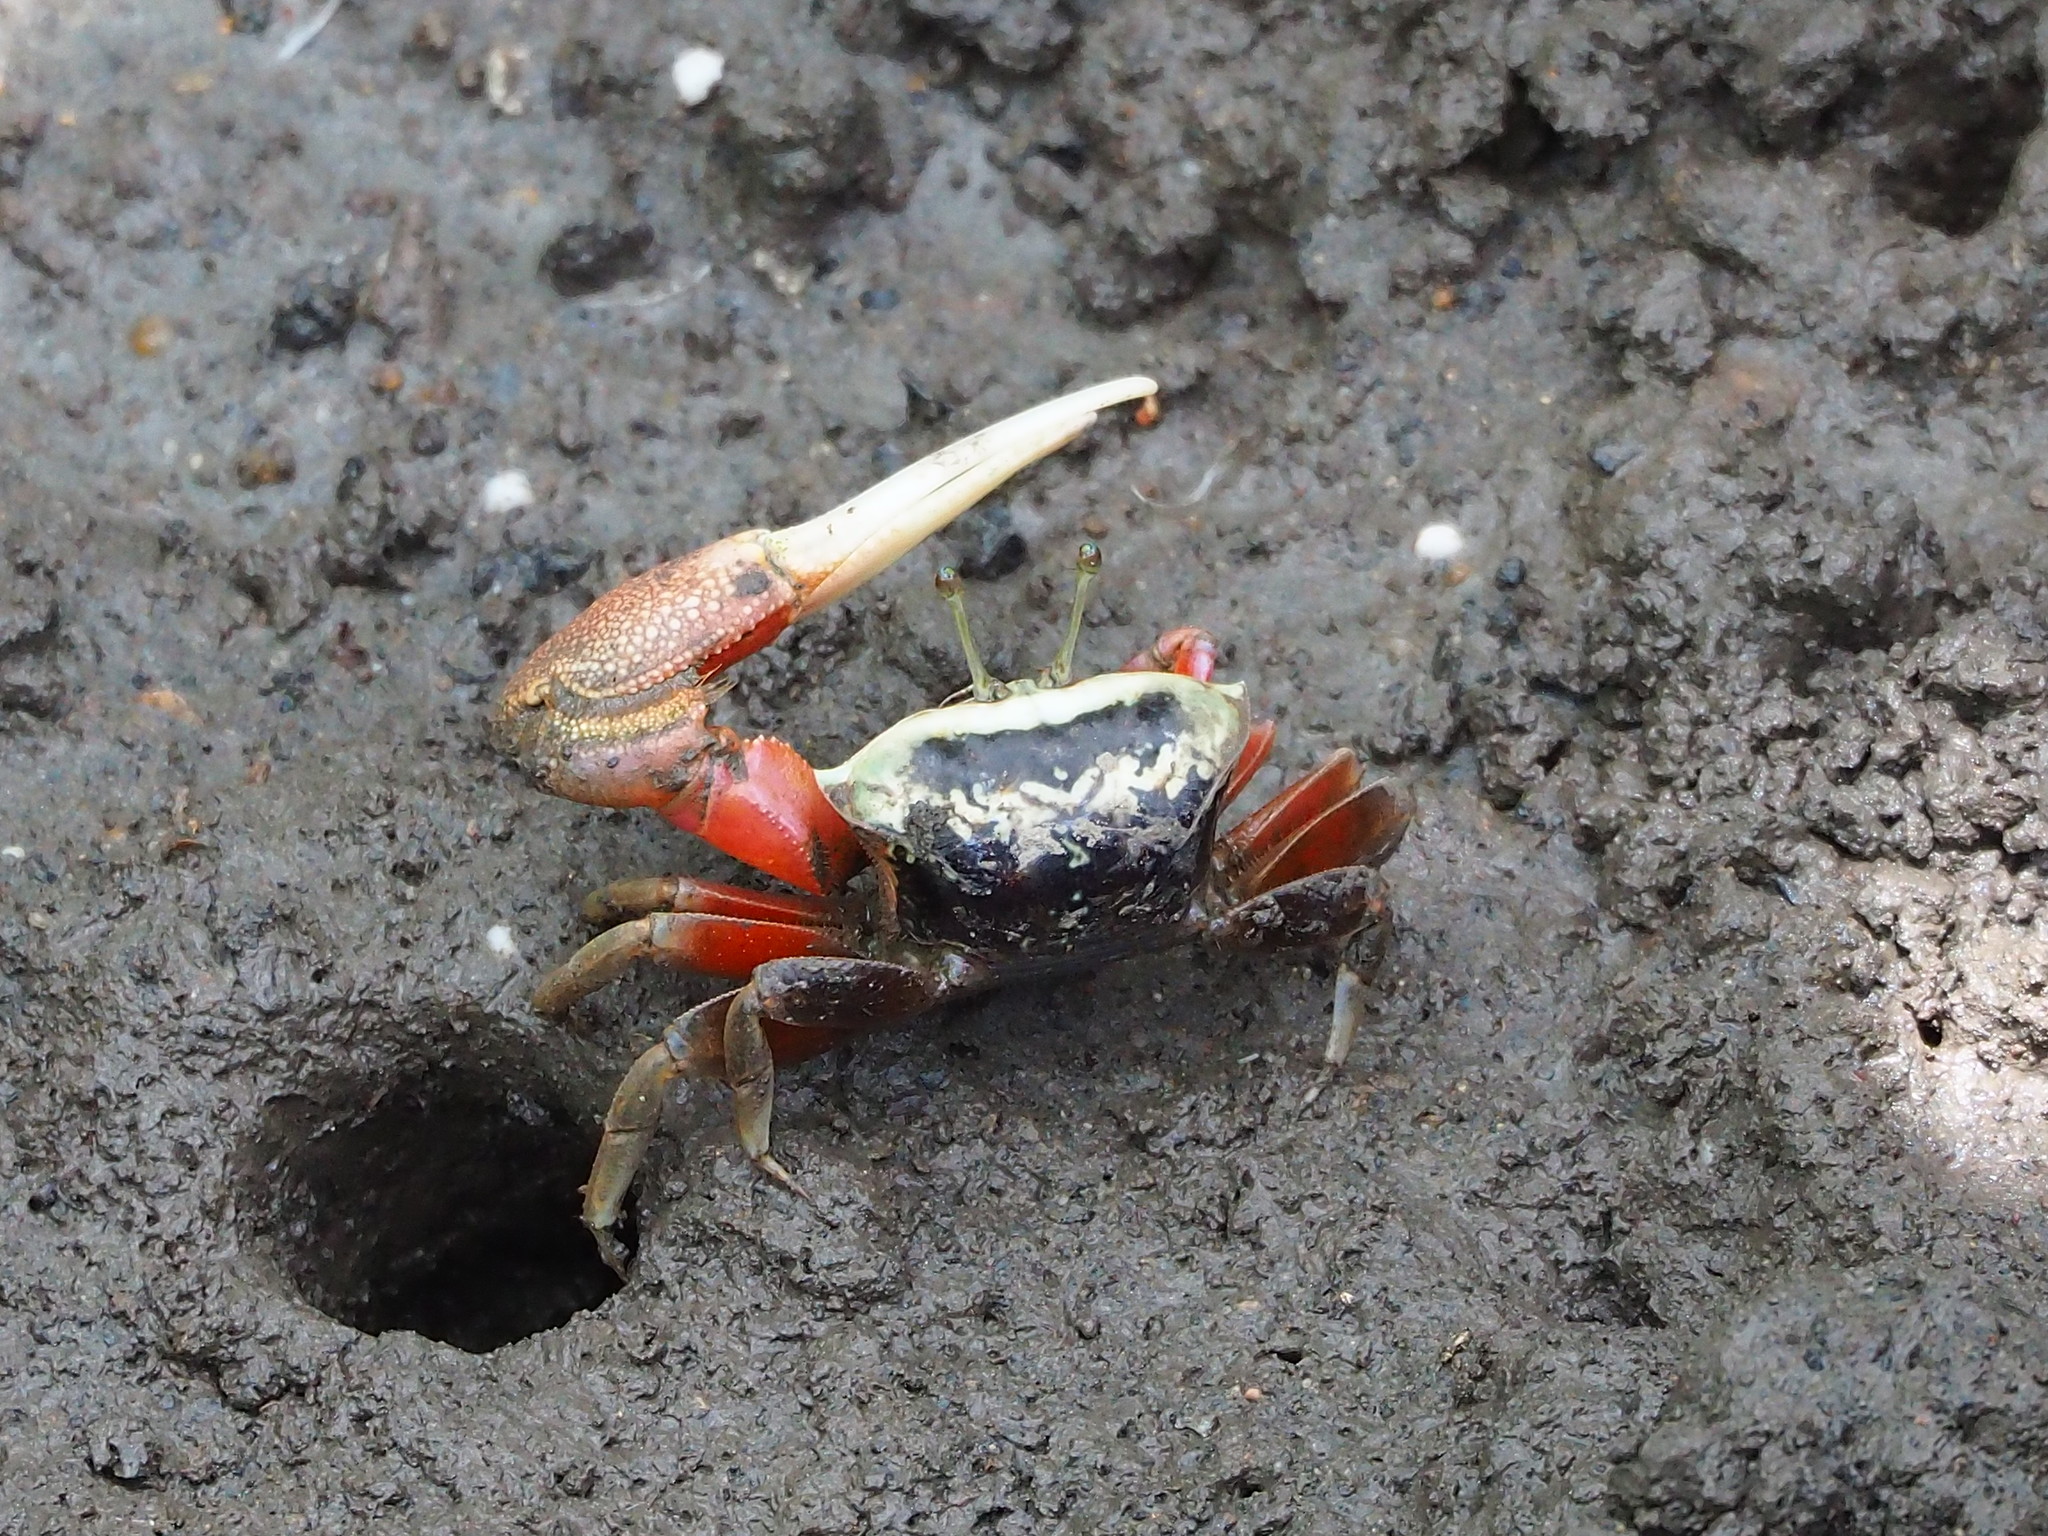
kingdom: Animalia
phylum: Arthropoda
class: Malacostraca
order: Decapoda
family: Ocypodidae
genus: Tubuca
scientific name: Tubuca arcuata
